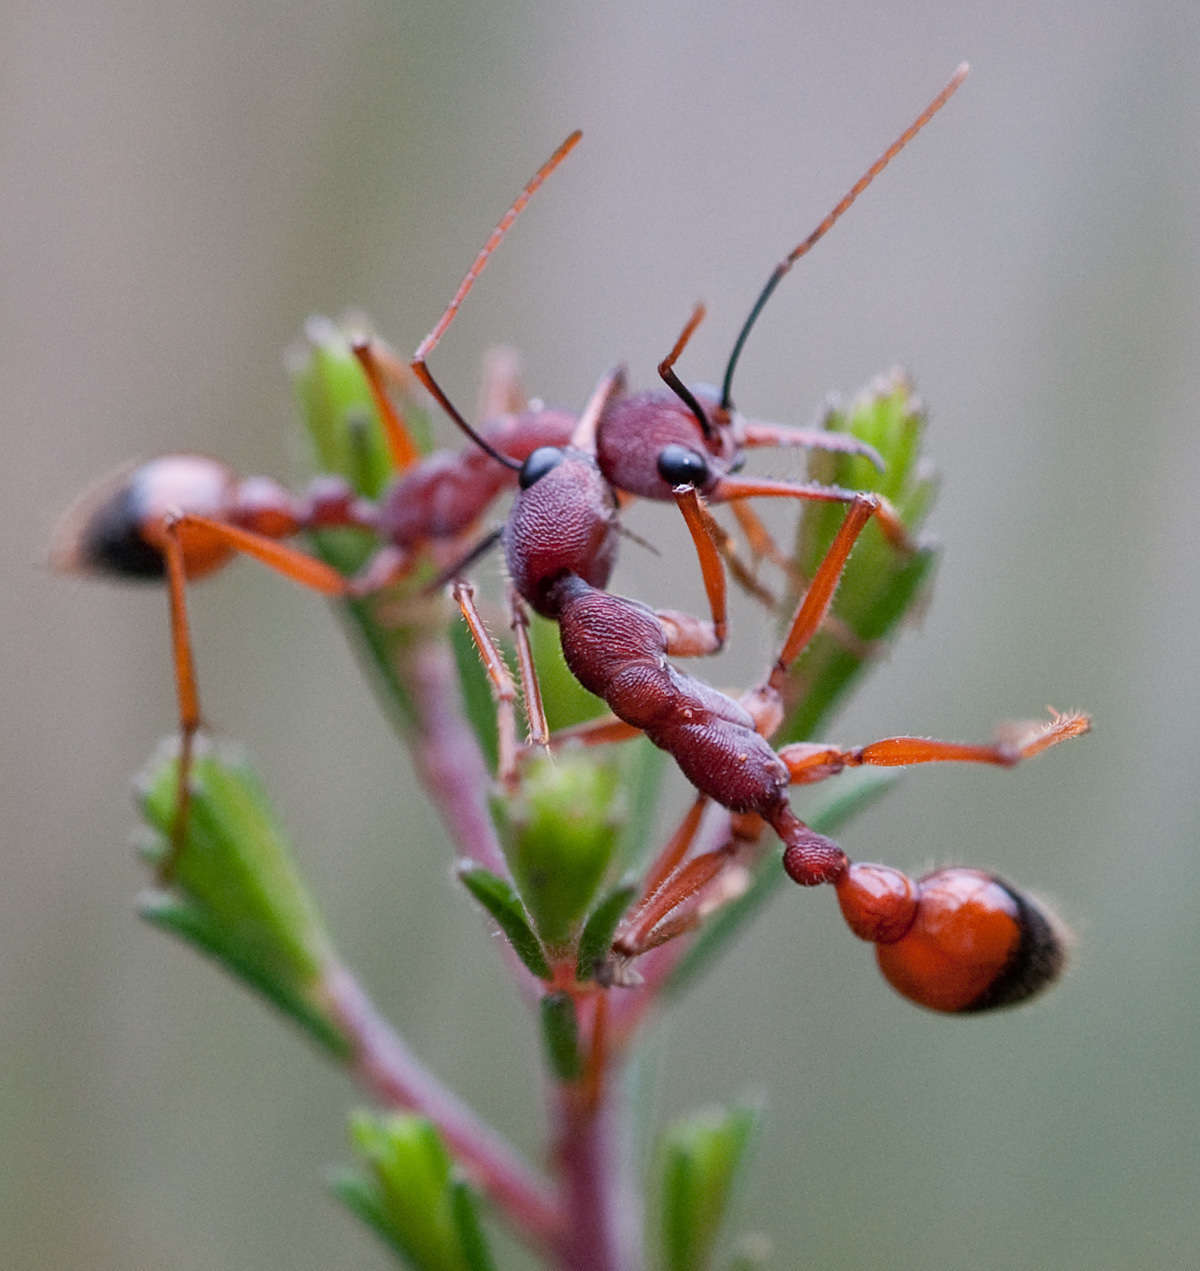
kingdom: Animalia
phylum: Arthropoda
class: Insecta
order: Hymenoptera
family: Formicidae
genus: Myrmecia
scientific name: Myrmecia nigriscapa
